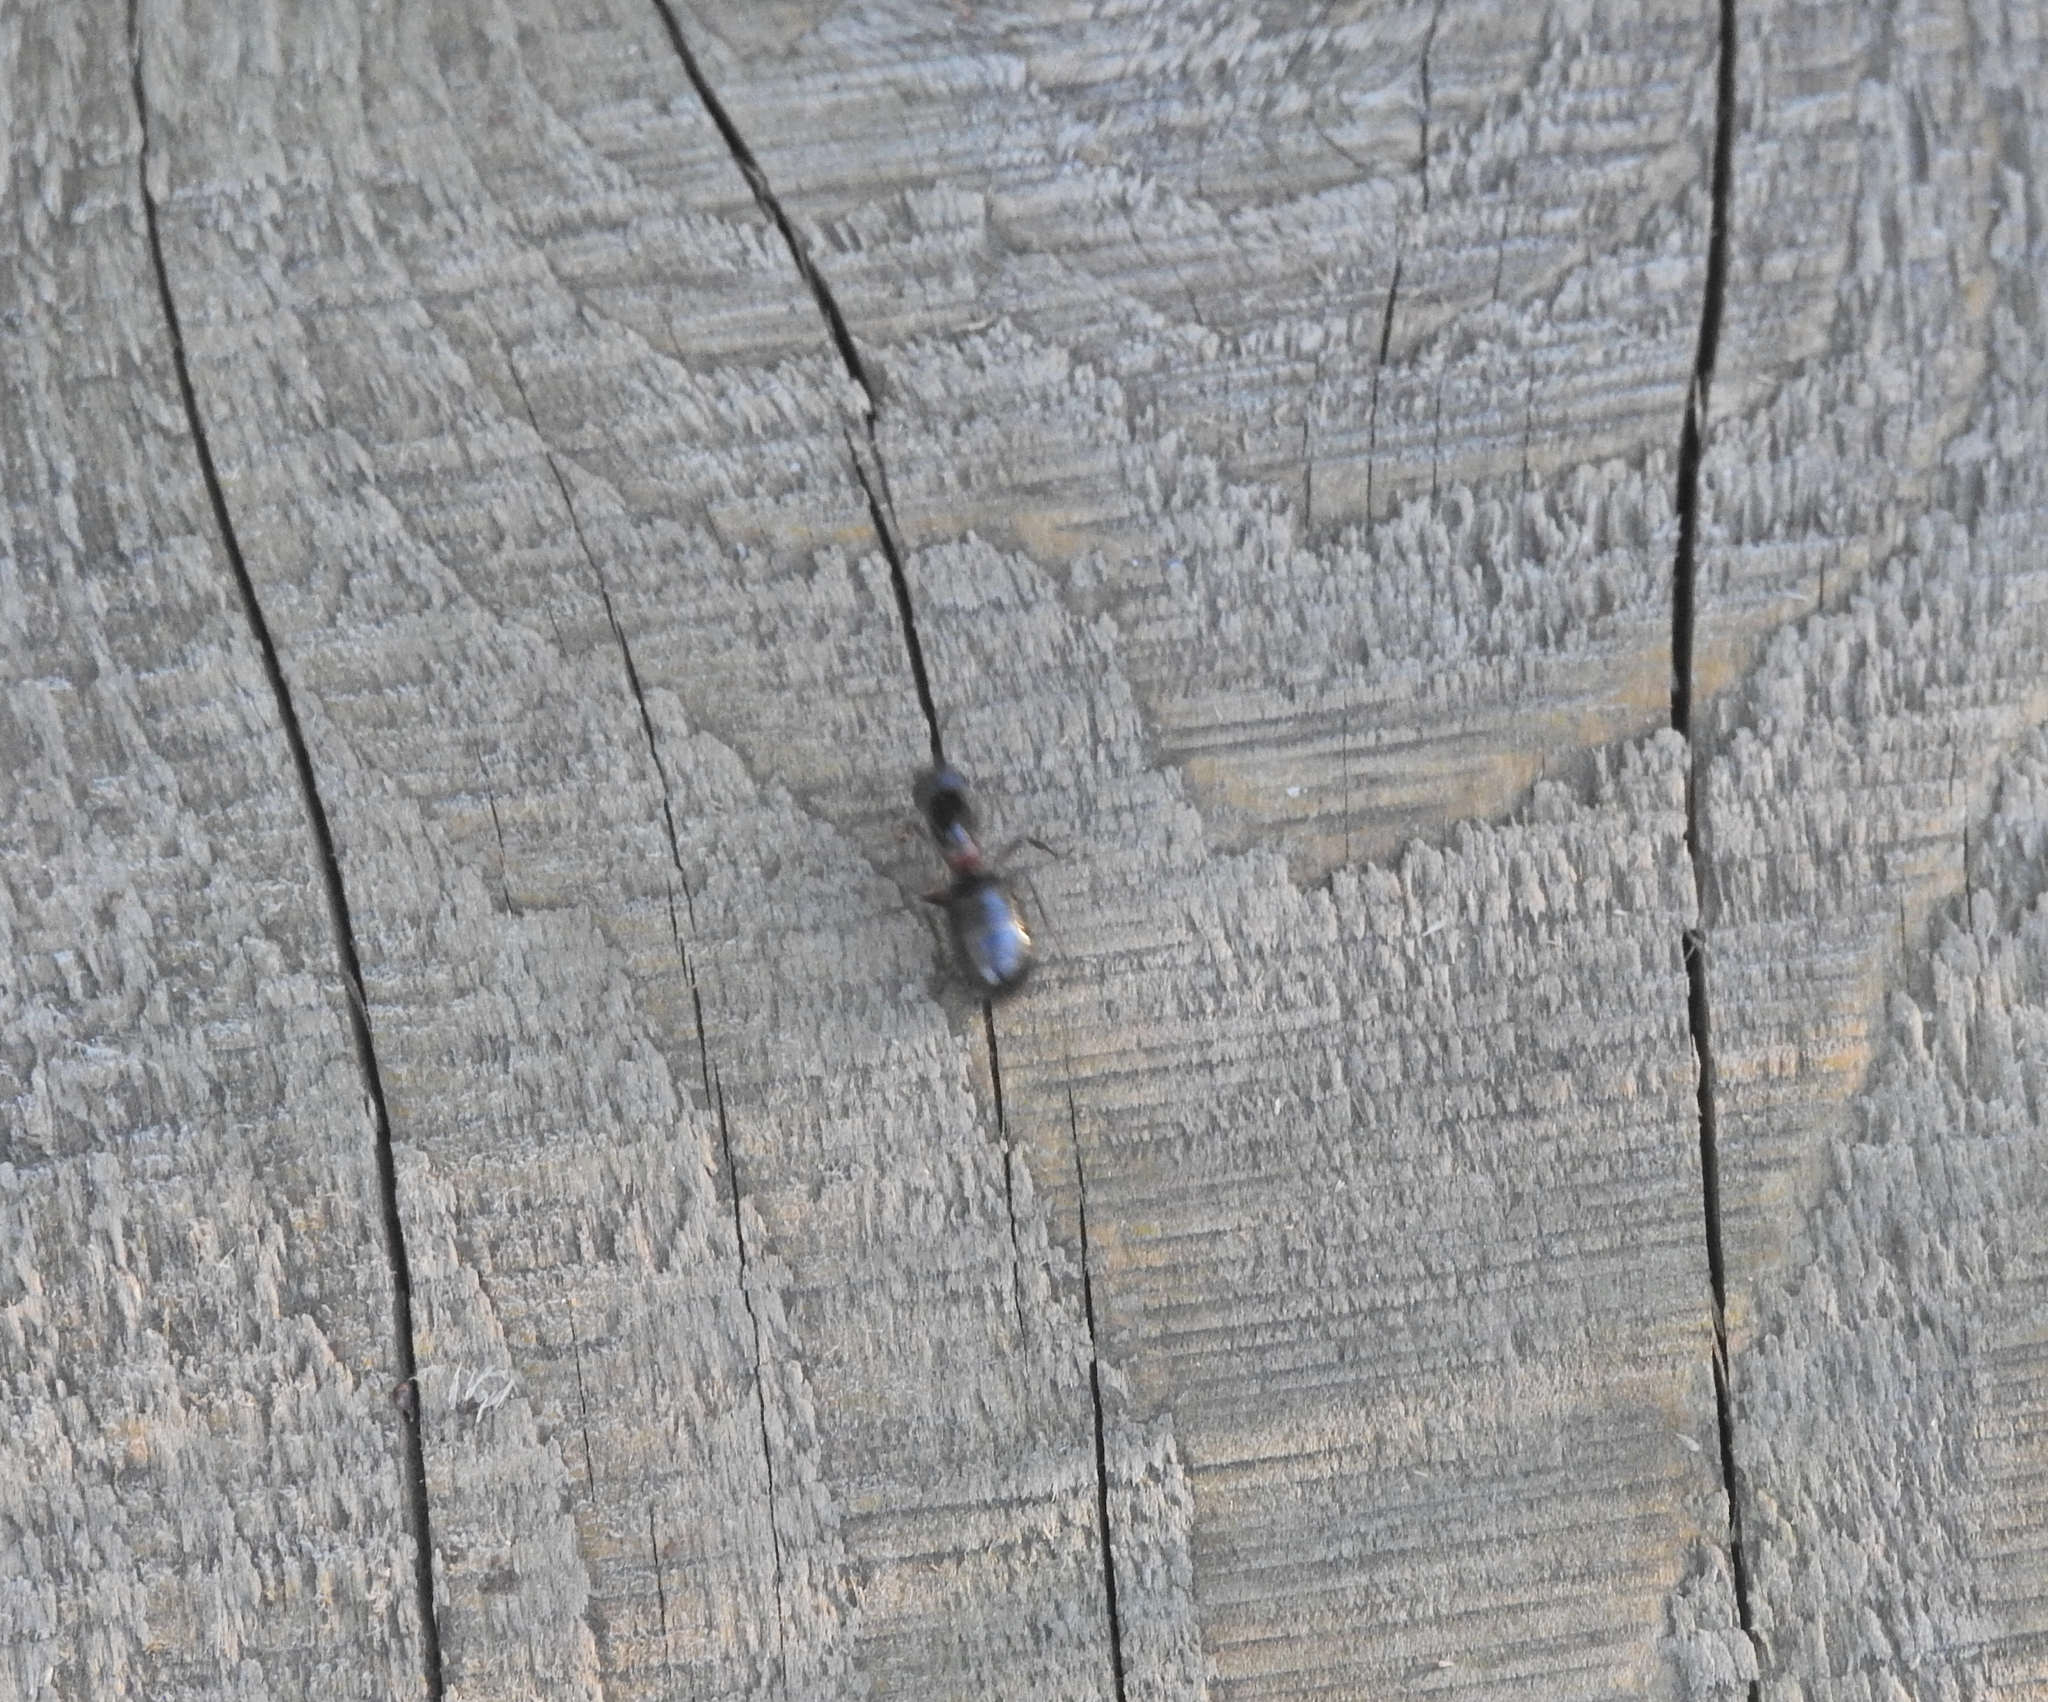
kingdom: Animalia
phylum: Arthropoda
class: Insecta
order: Hymenoptera
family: Formicidae
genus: Camponotus
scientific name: Camponotus herculeanus
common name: Hercules ant
